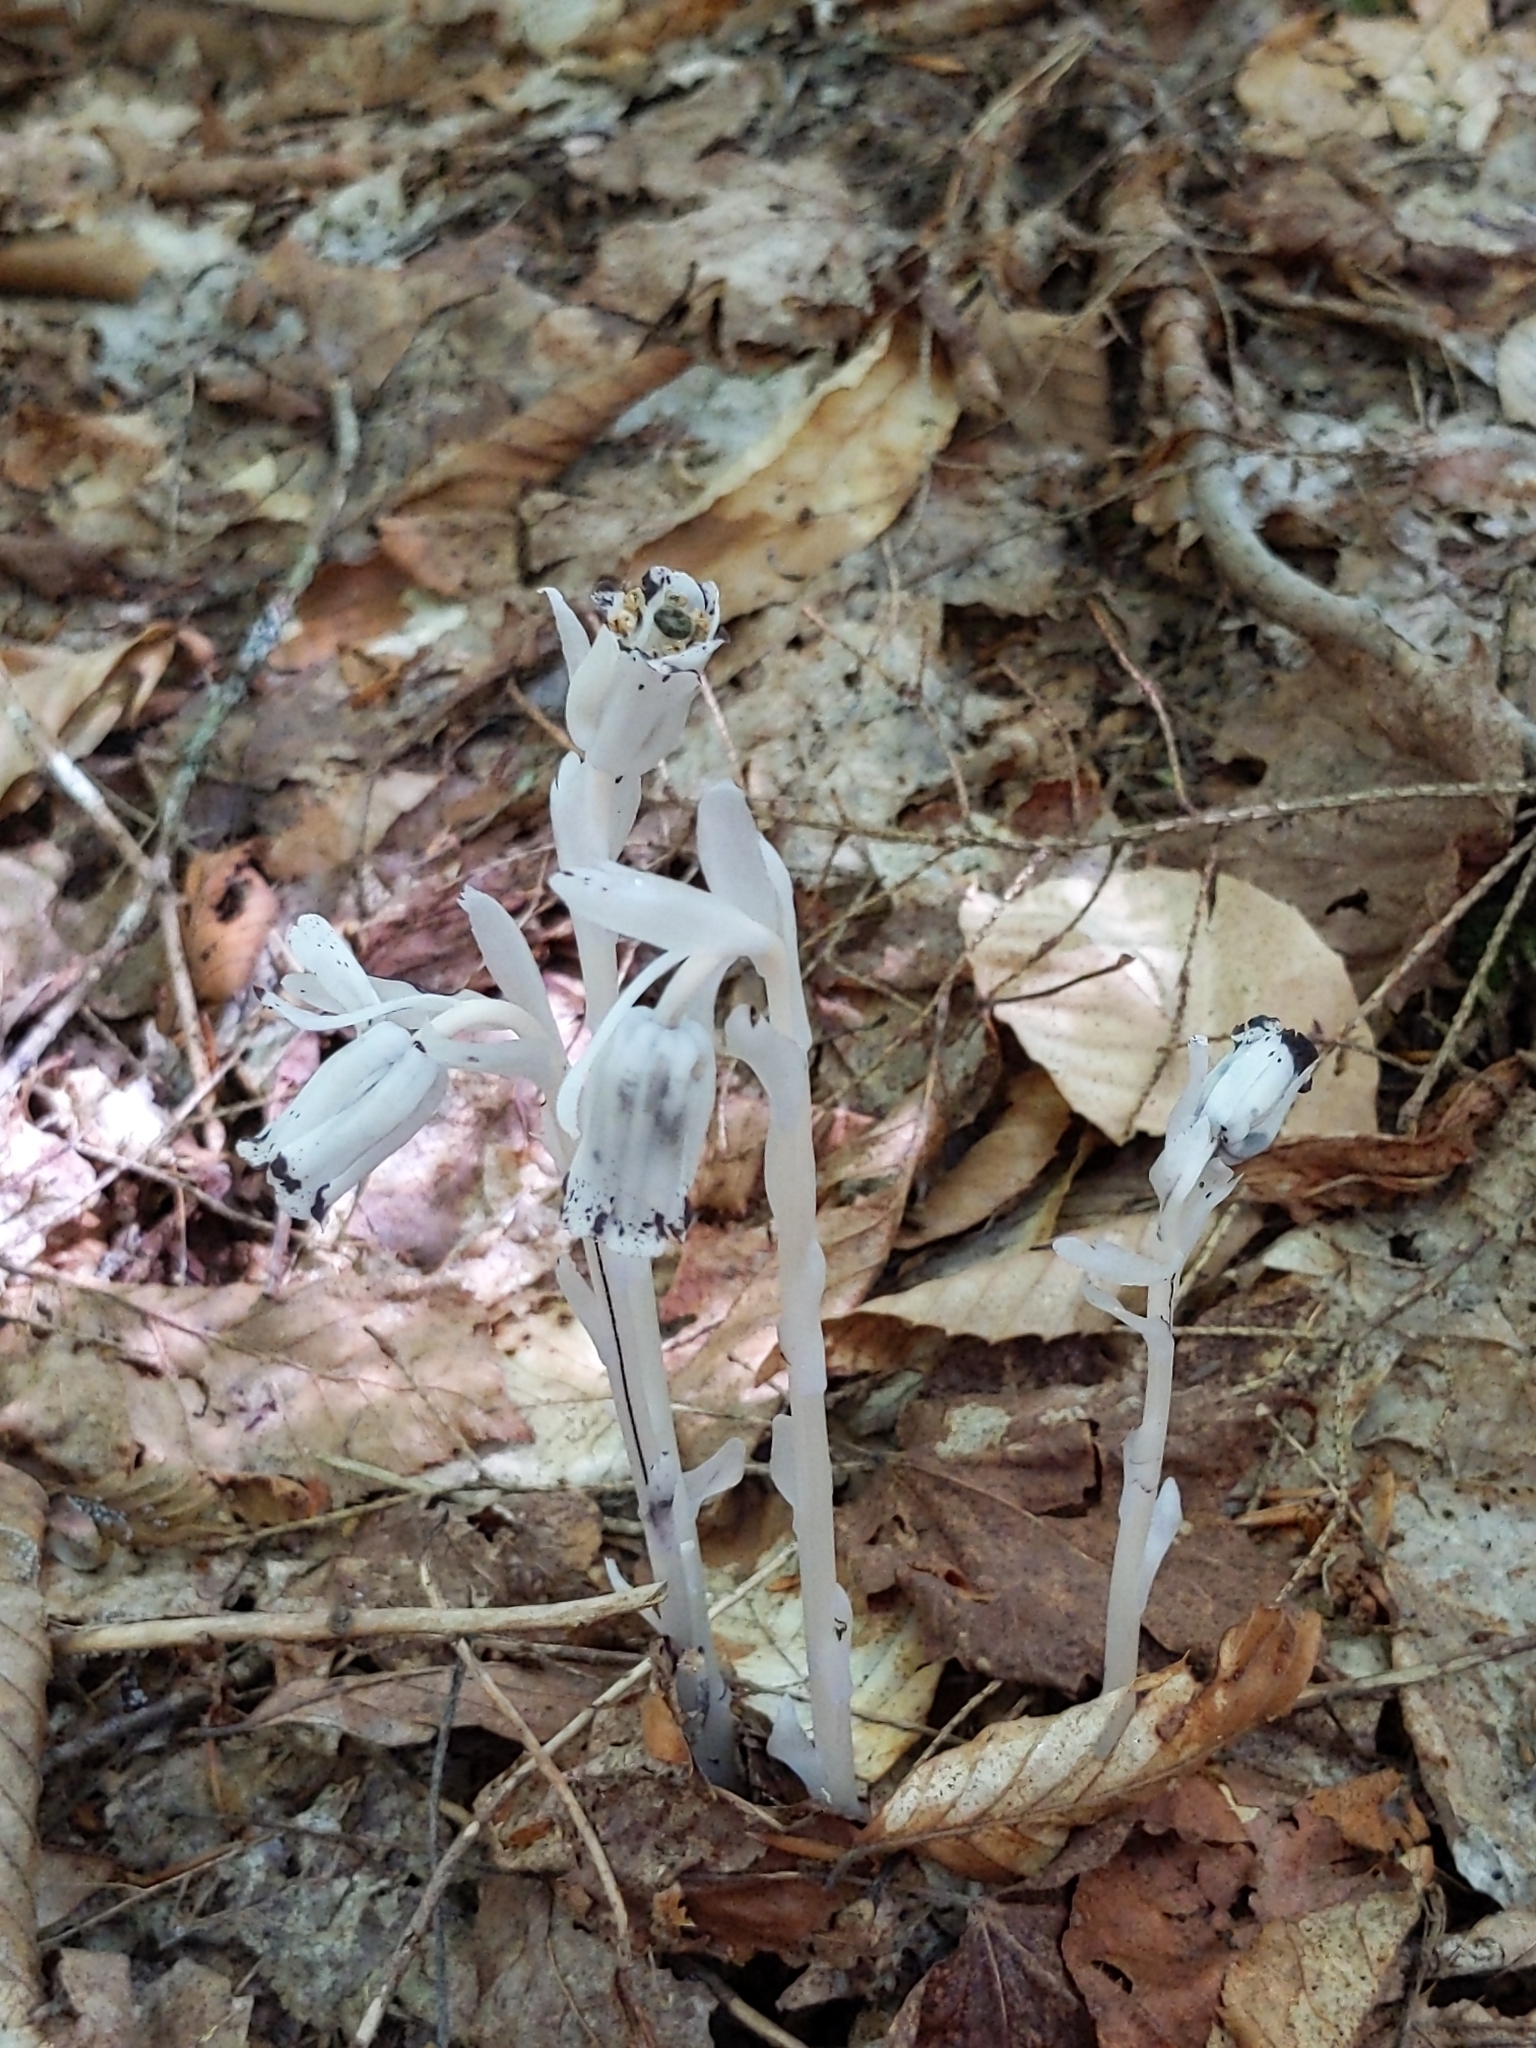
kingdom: Plantae
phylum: Tracheophyta
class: Magnoliopsida
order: Ericales
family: Ericaceae
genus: Monotropa
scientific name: Monotropa uniflora
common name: Convulsion root
